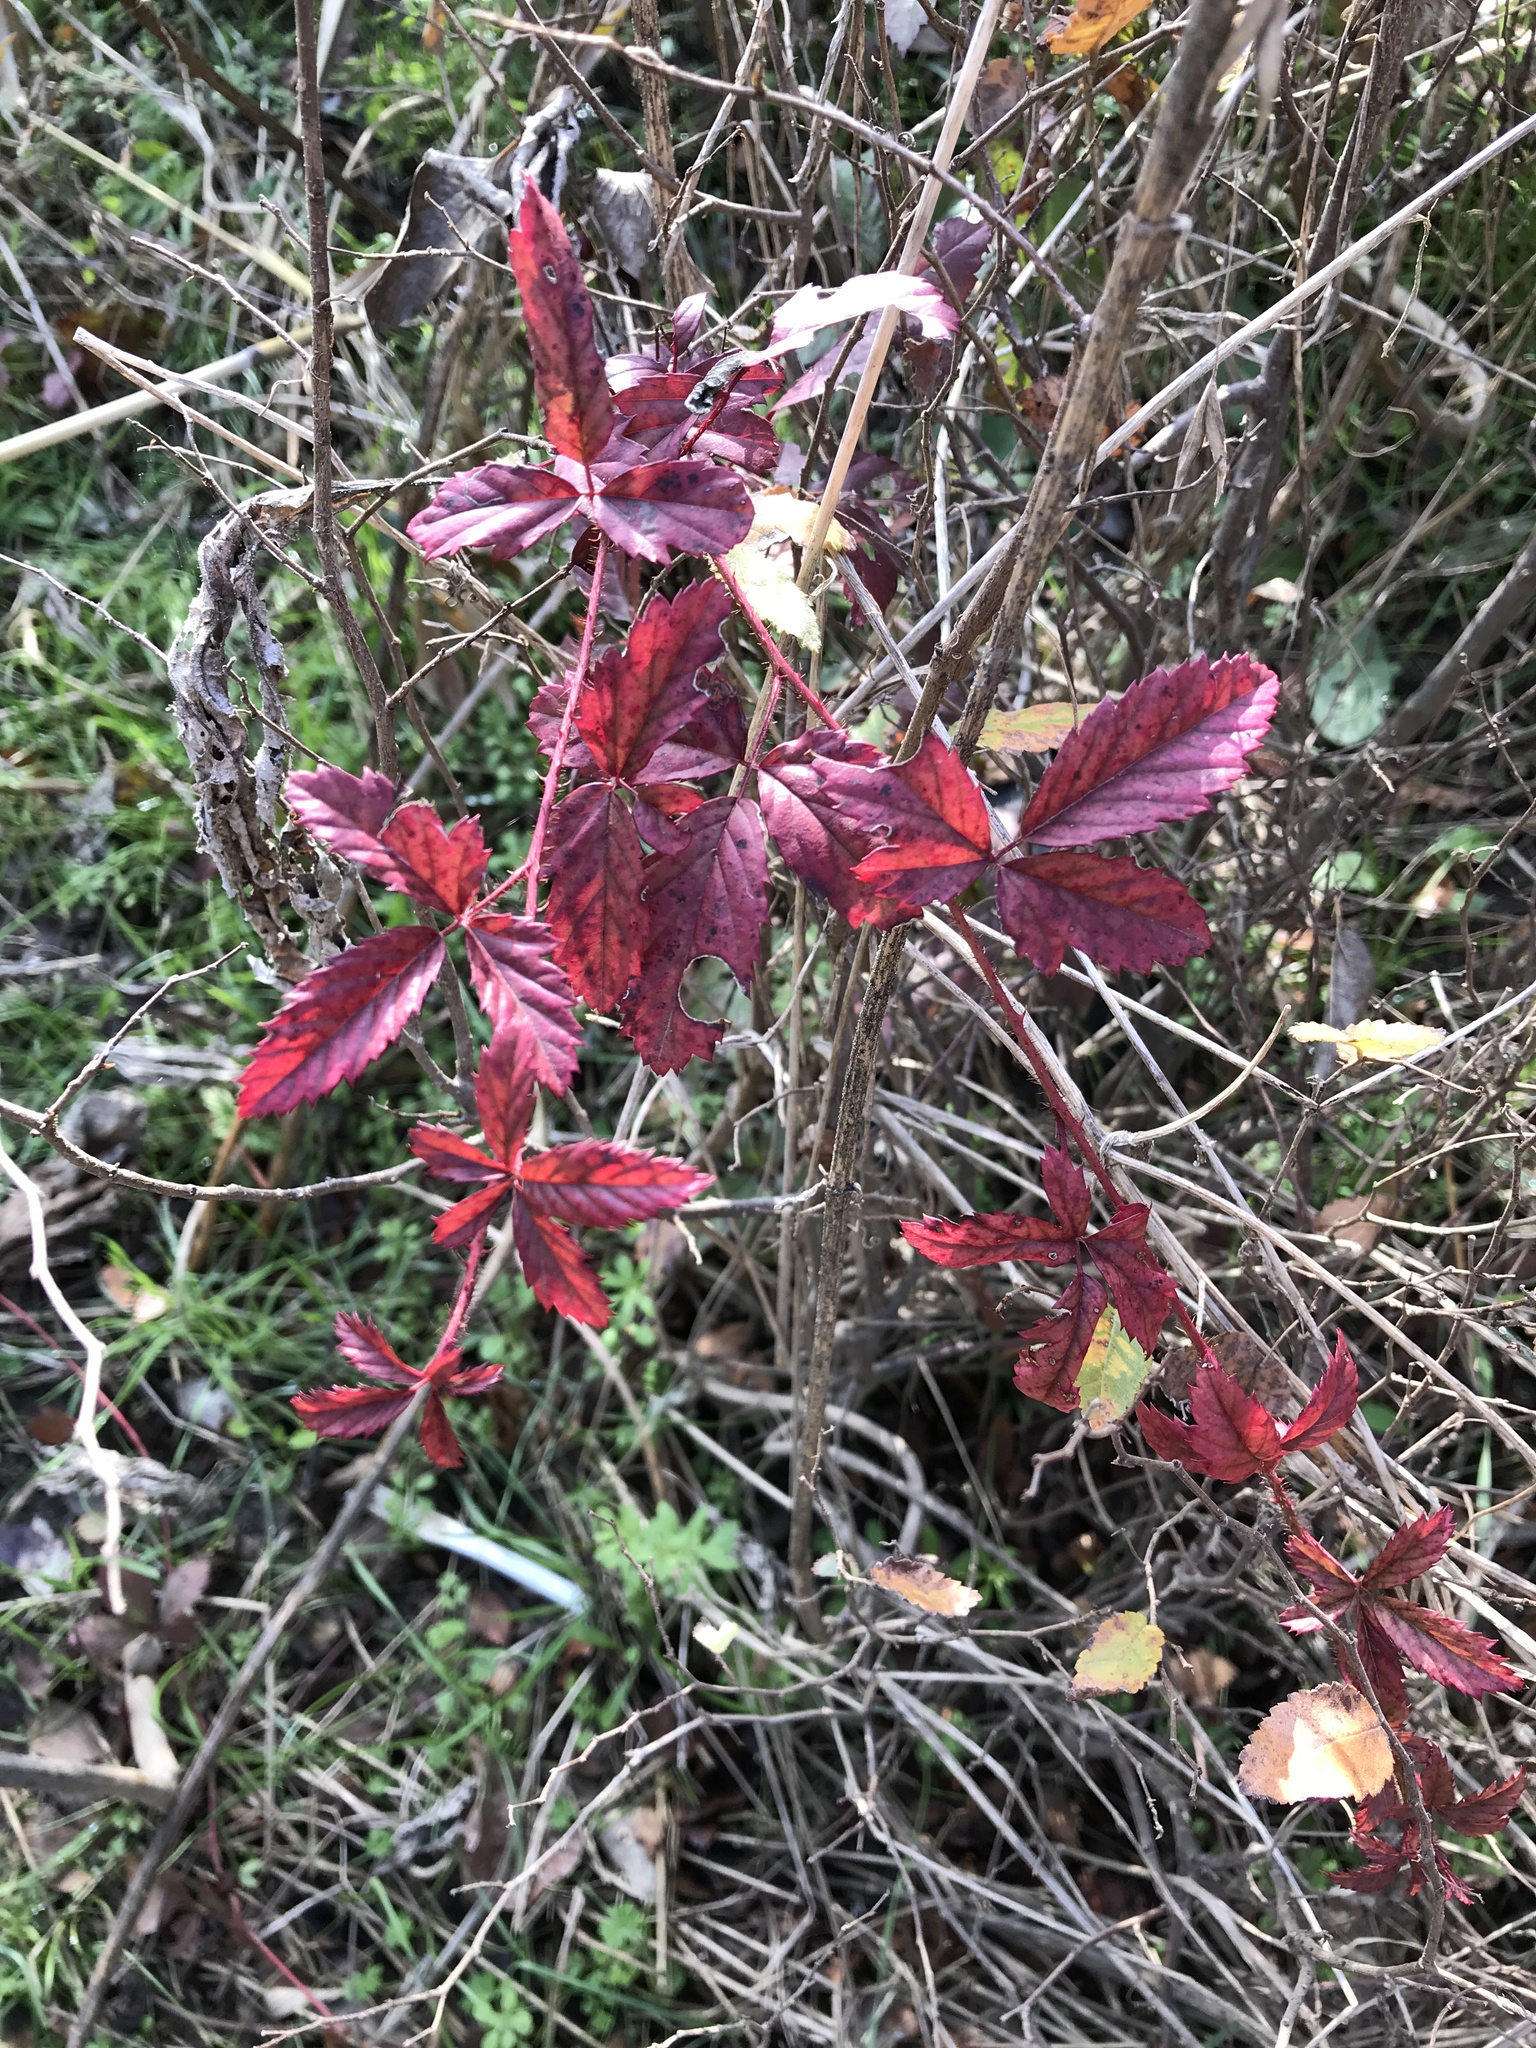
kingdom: Plantae
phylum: Tracheophyta
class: Magnoliopsida
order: Rosales
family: Rosaceae
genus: Rubus
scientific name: Rubus trivialis
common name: Southern dewberry
